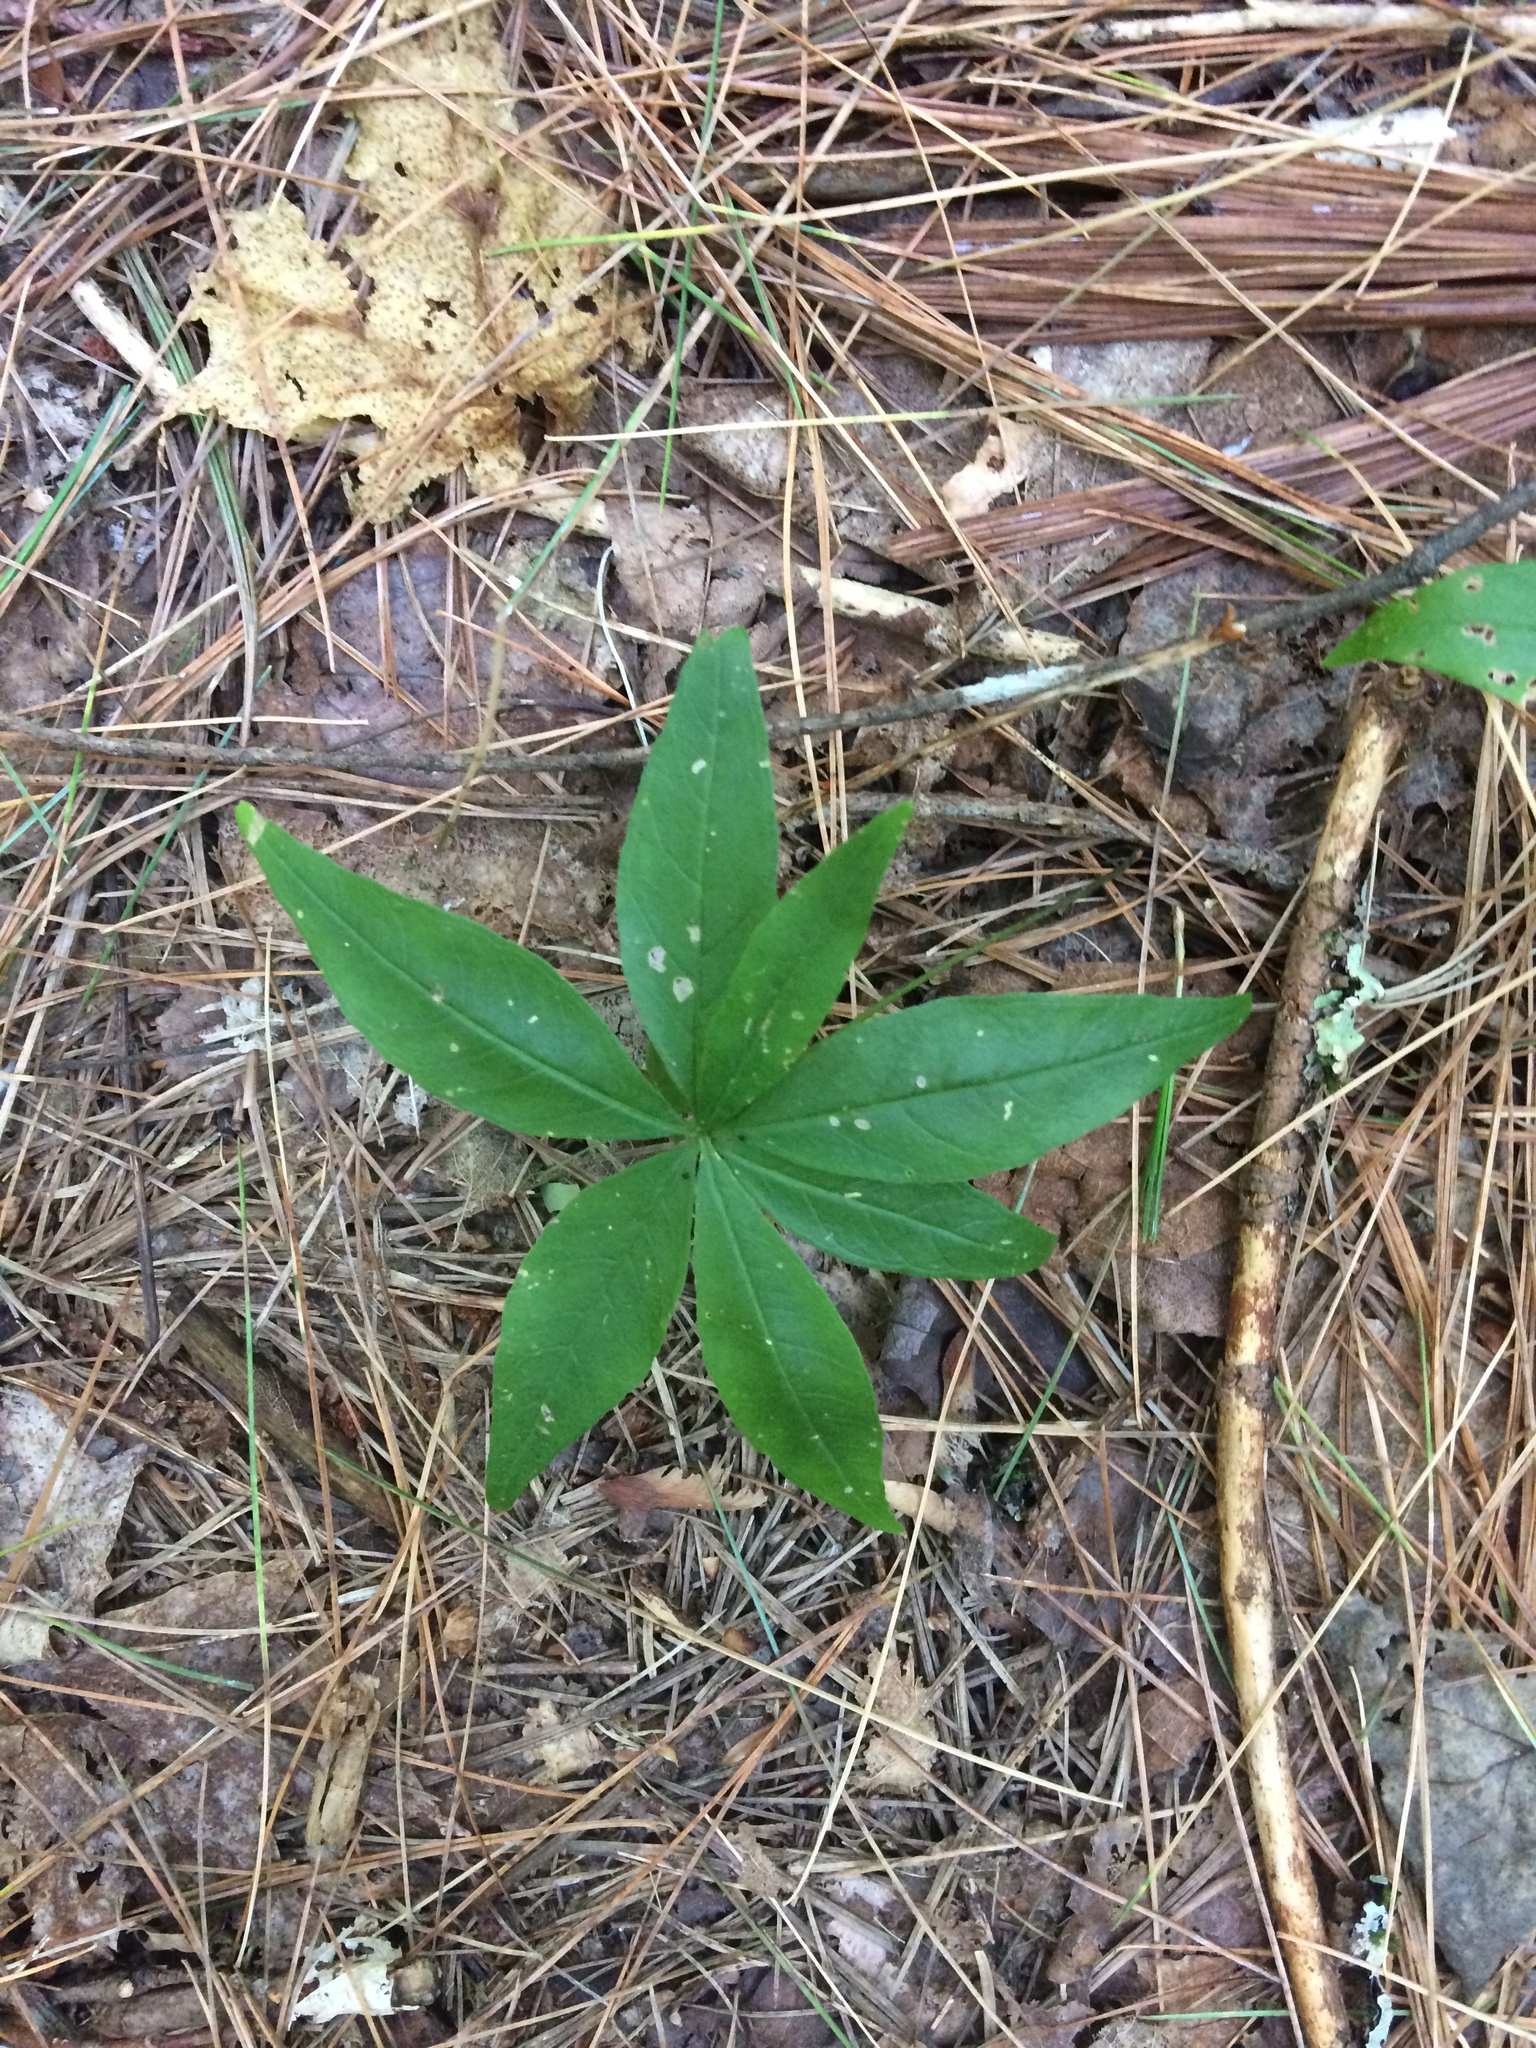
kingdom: Plantae
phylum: Tracheophyta
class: Magnoliopsida
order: Ericales
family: Primulaceae
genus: Lysimachia
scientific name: Lysimachia borealis
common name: American starflower
